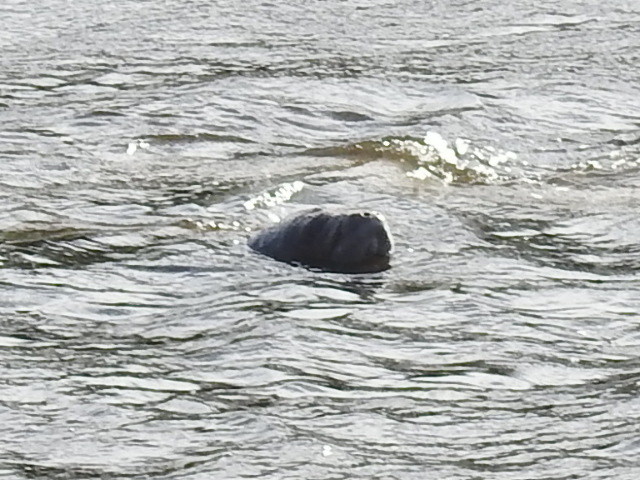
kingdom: Animalia
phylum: Chordata
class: Mammalia
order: Sirenia
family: Trichechidae
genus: Trichechus
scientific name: Trichechus manatus
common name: West indian manatee
